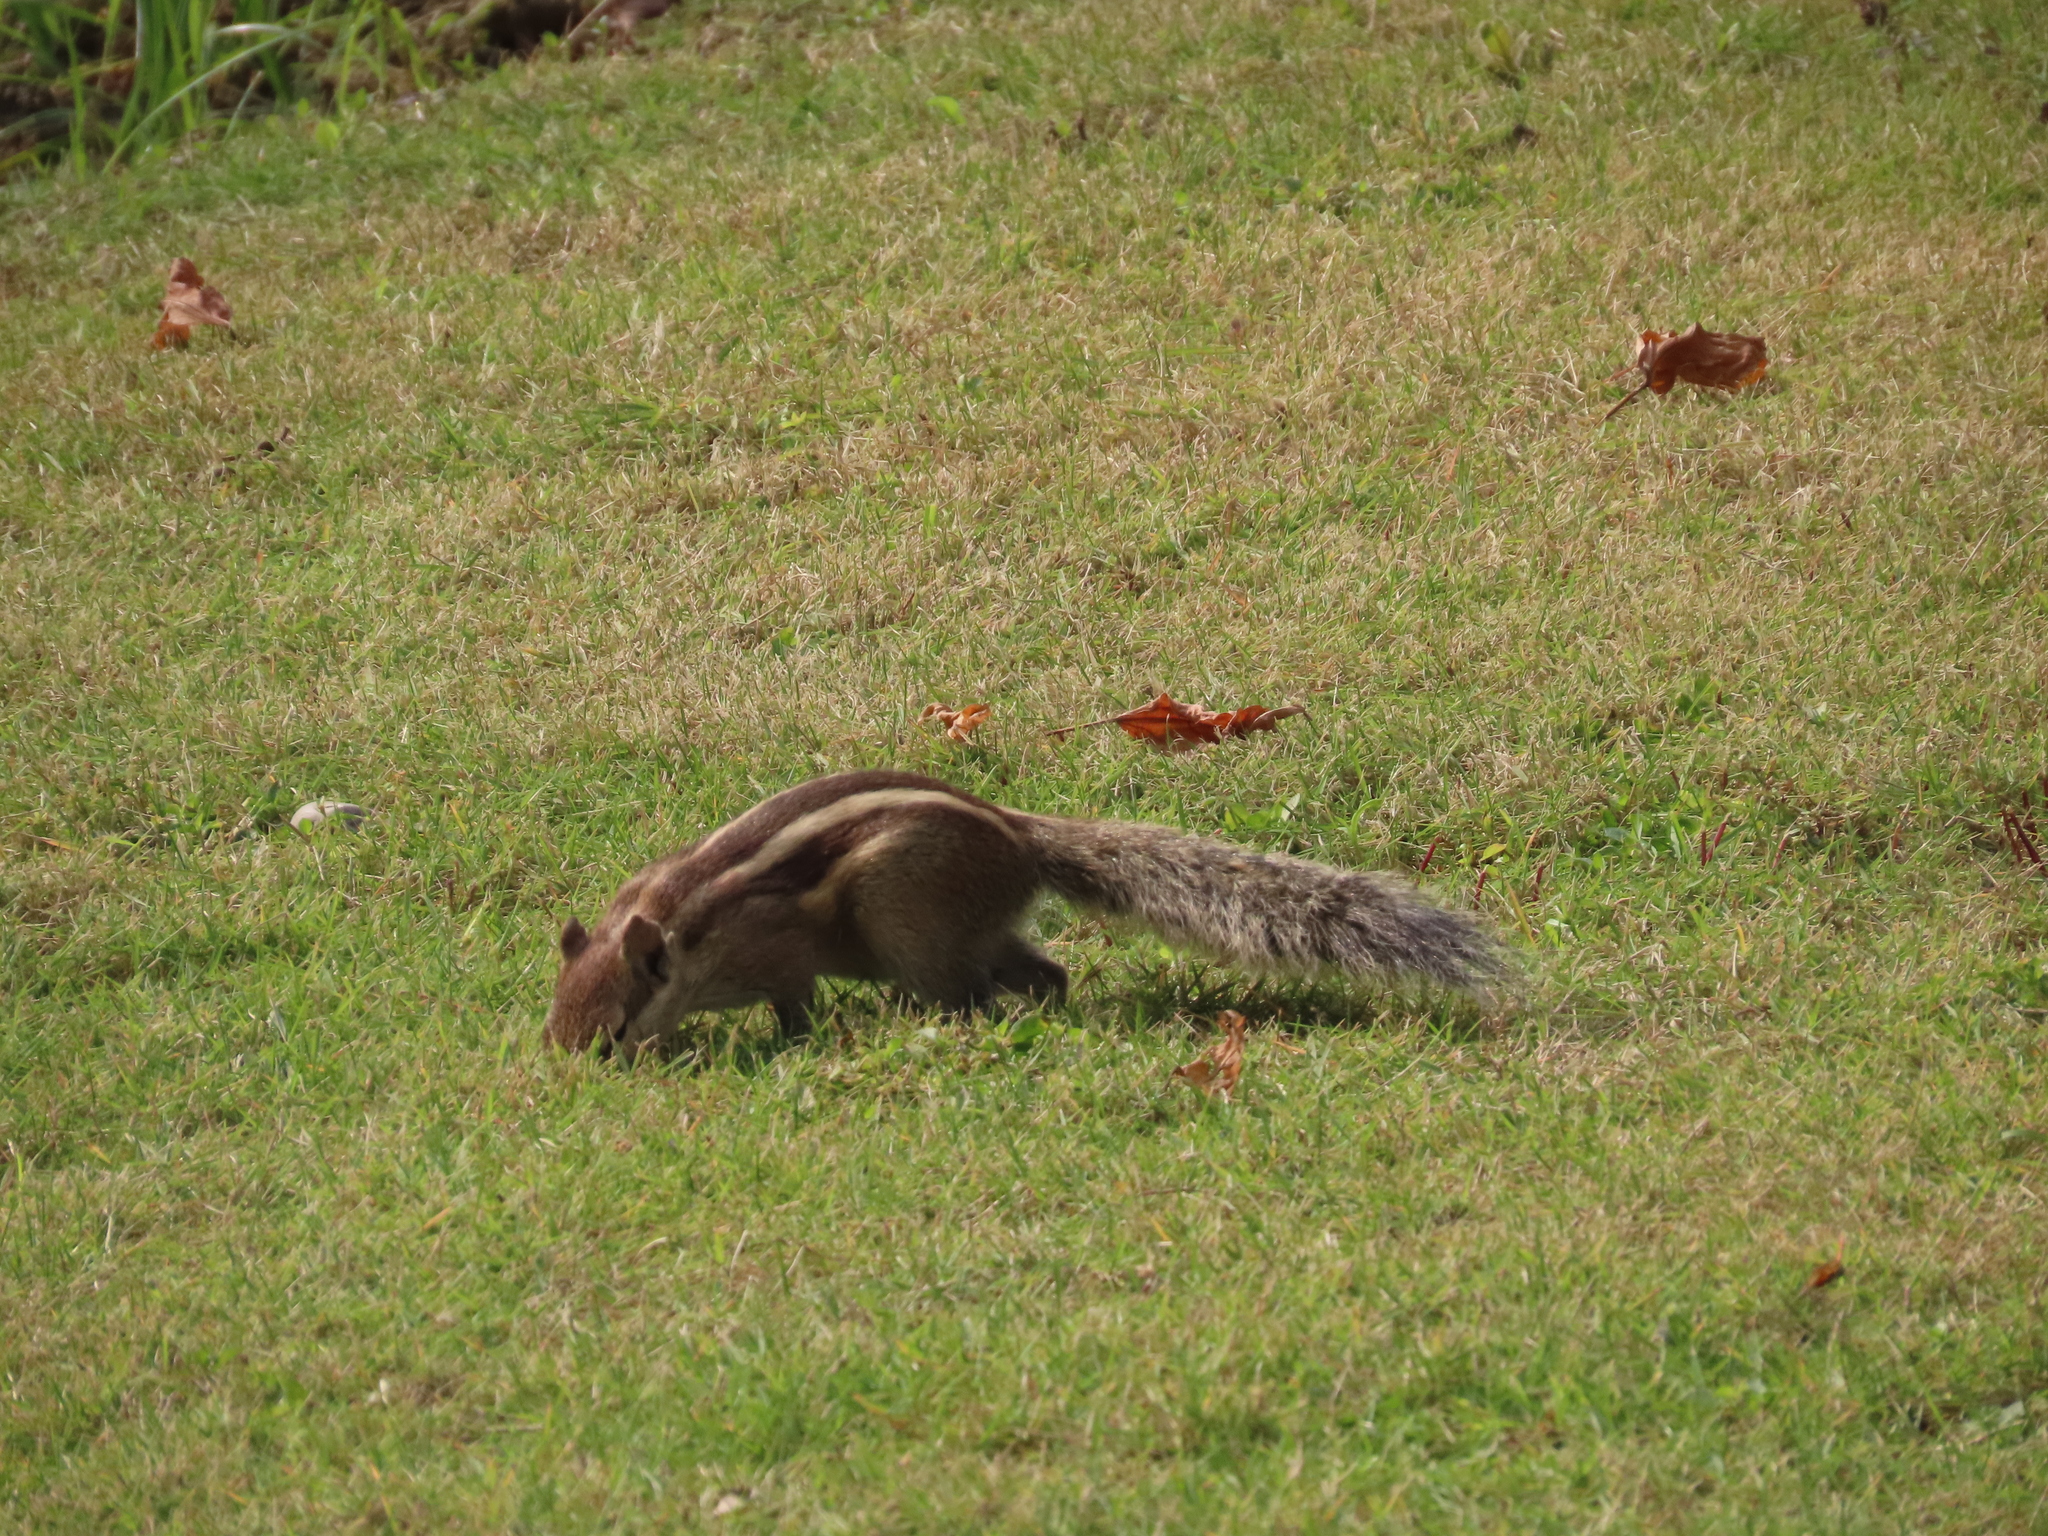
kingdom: Animalia
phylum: Chordata
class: Mammalia
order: Rodentia
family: Sciuridae
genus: Funambulus
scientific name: Funambulus pennantii
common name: Northern palm squirrel
